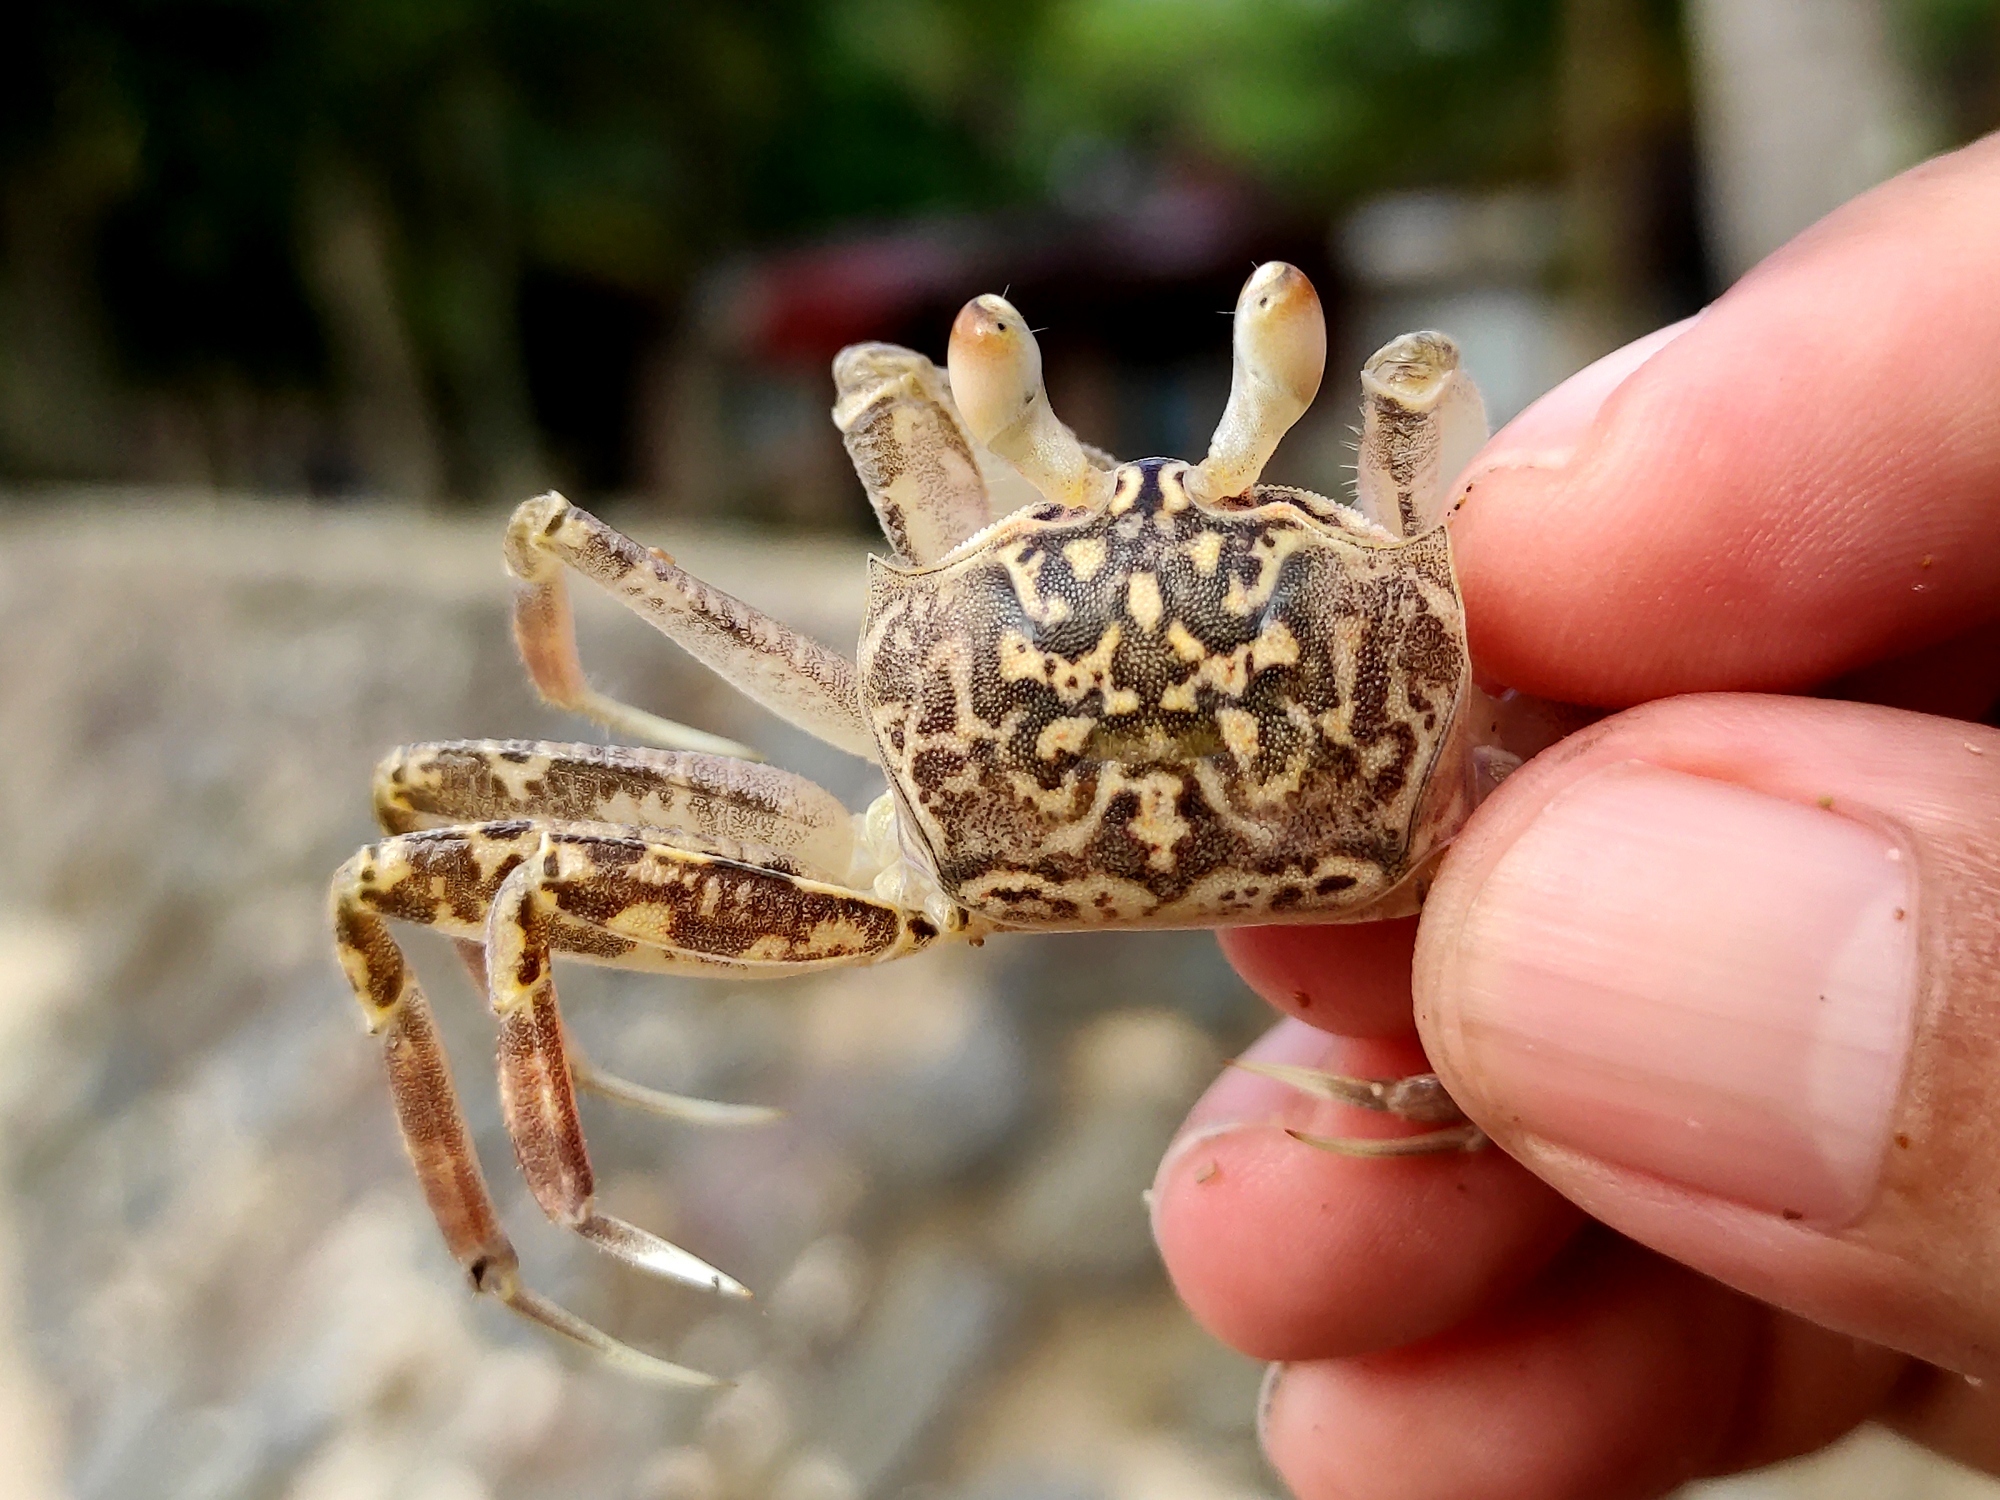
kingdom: Animalia
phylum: Arthropoda
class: Malacostraca
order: Decapoda
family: Ocypodidae
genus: Ocypode
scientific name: Ocypode kuhlii
